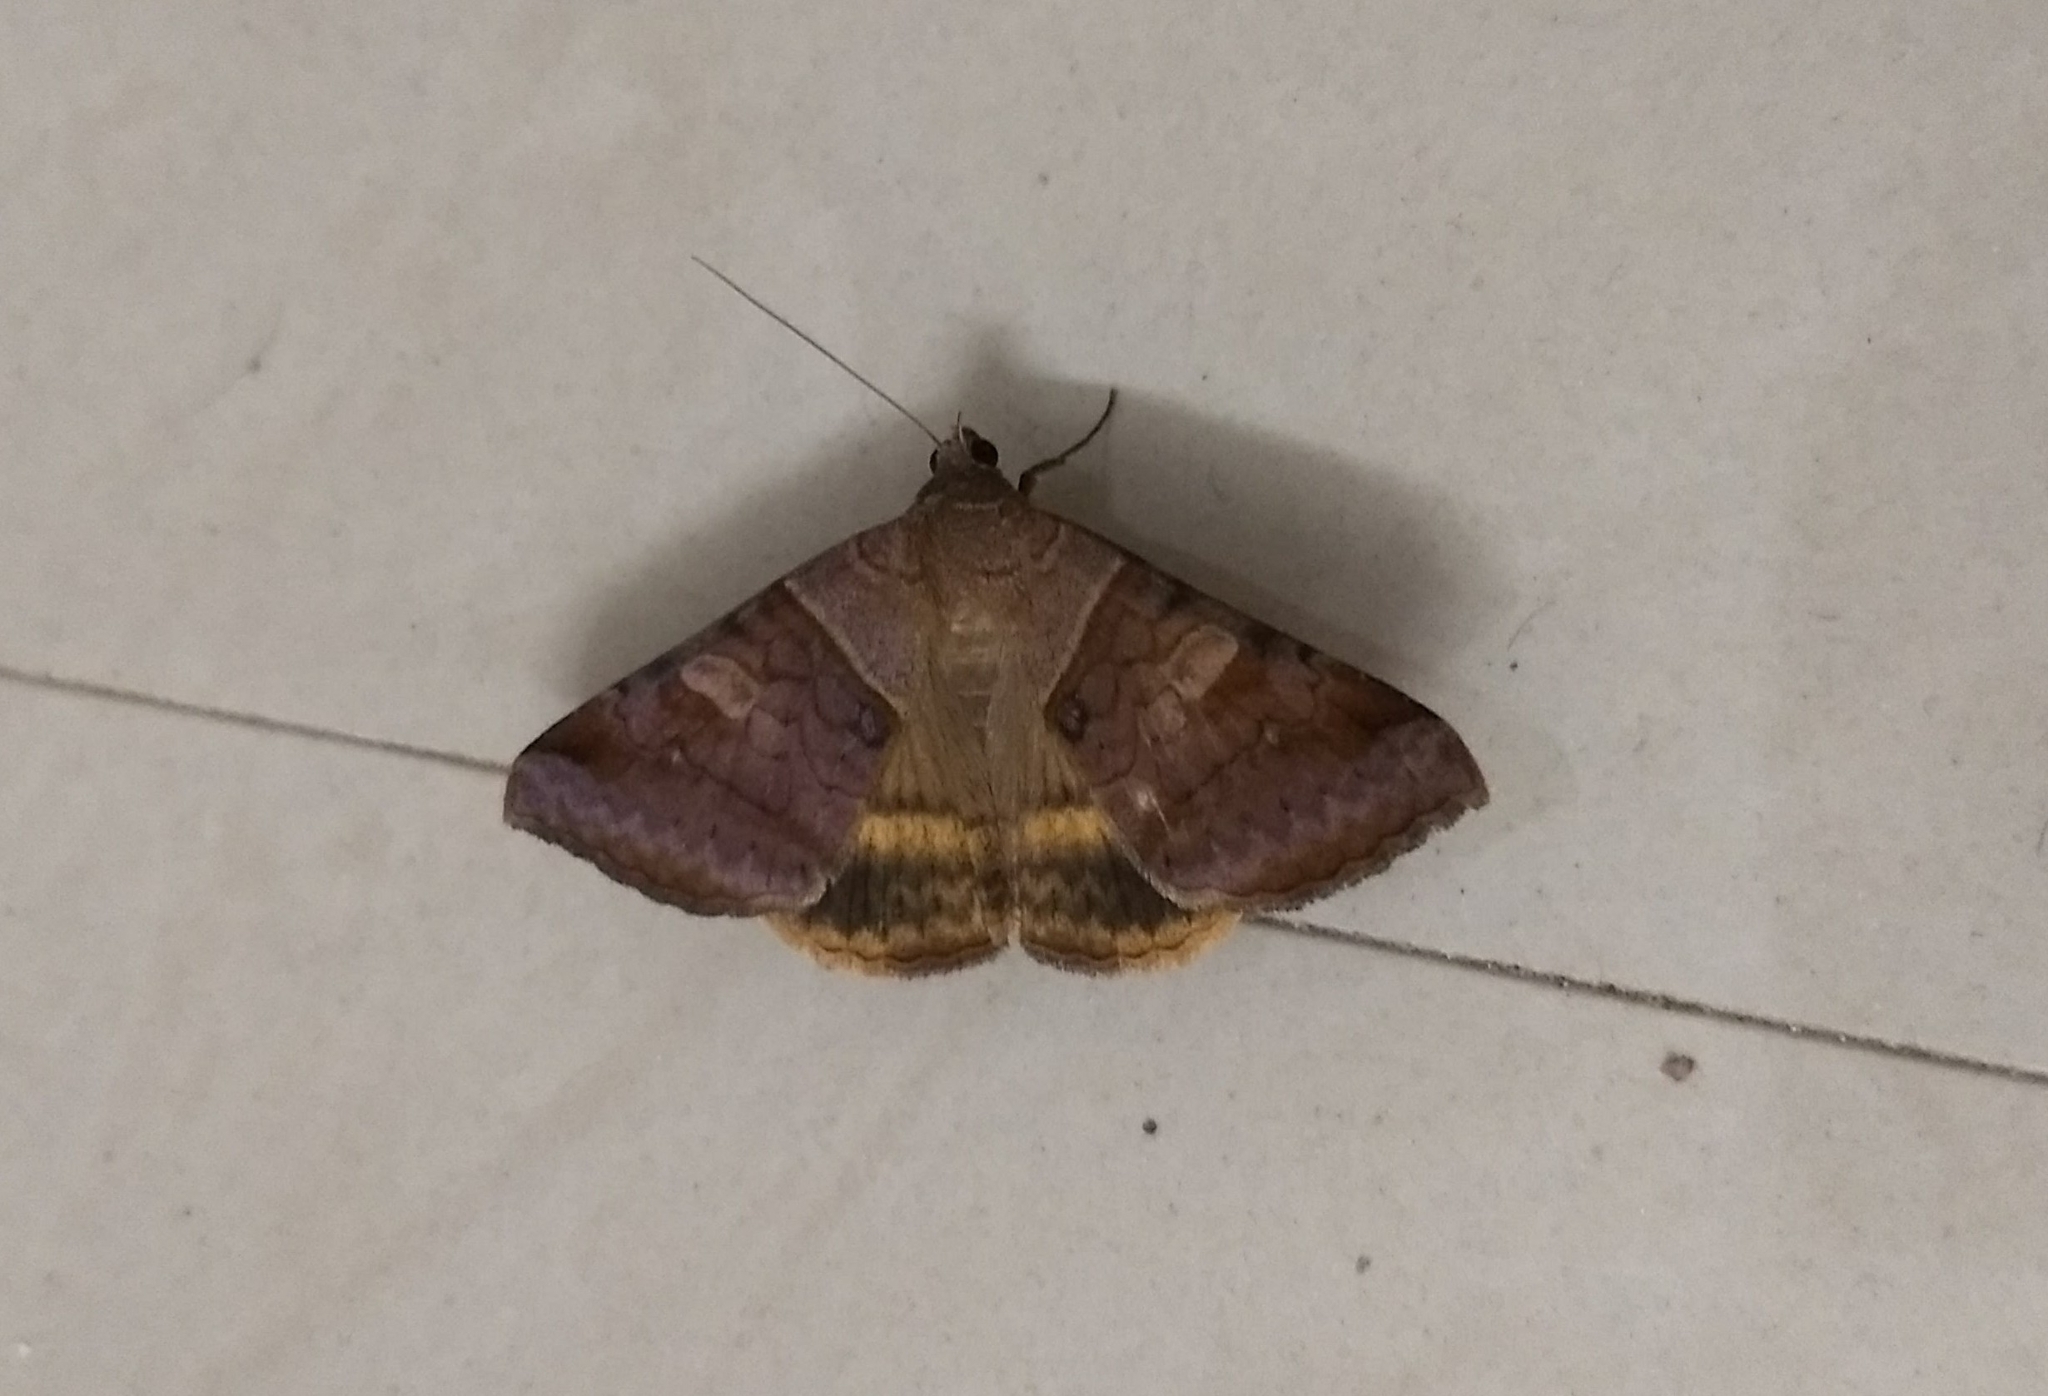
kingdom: Animalia
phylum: Arthropoda
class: Insecta
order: Lepidoptera
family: Erebidae
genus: Mocis
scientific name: Mocis undata
